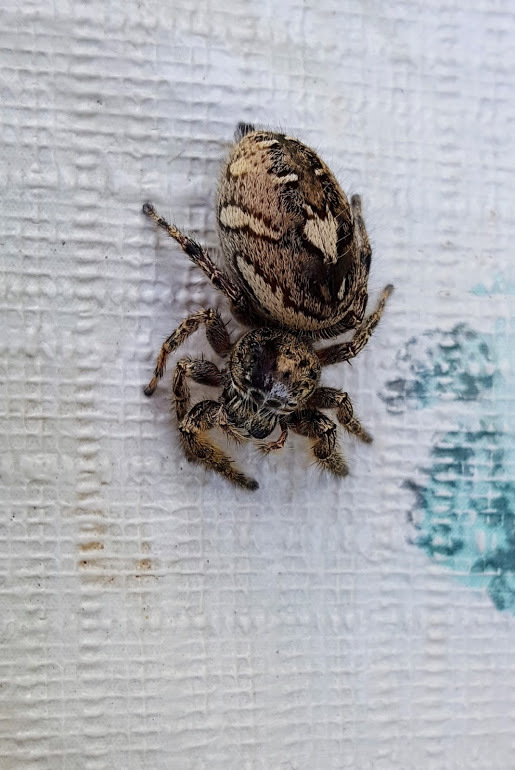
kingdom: Animalia
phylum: Arthropoda
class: Arachnida
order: Araneae
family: Salticidae
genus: Phidippus
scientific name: Phidippus putnami
